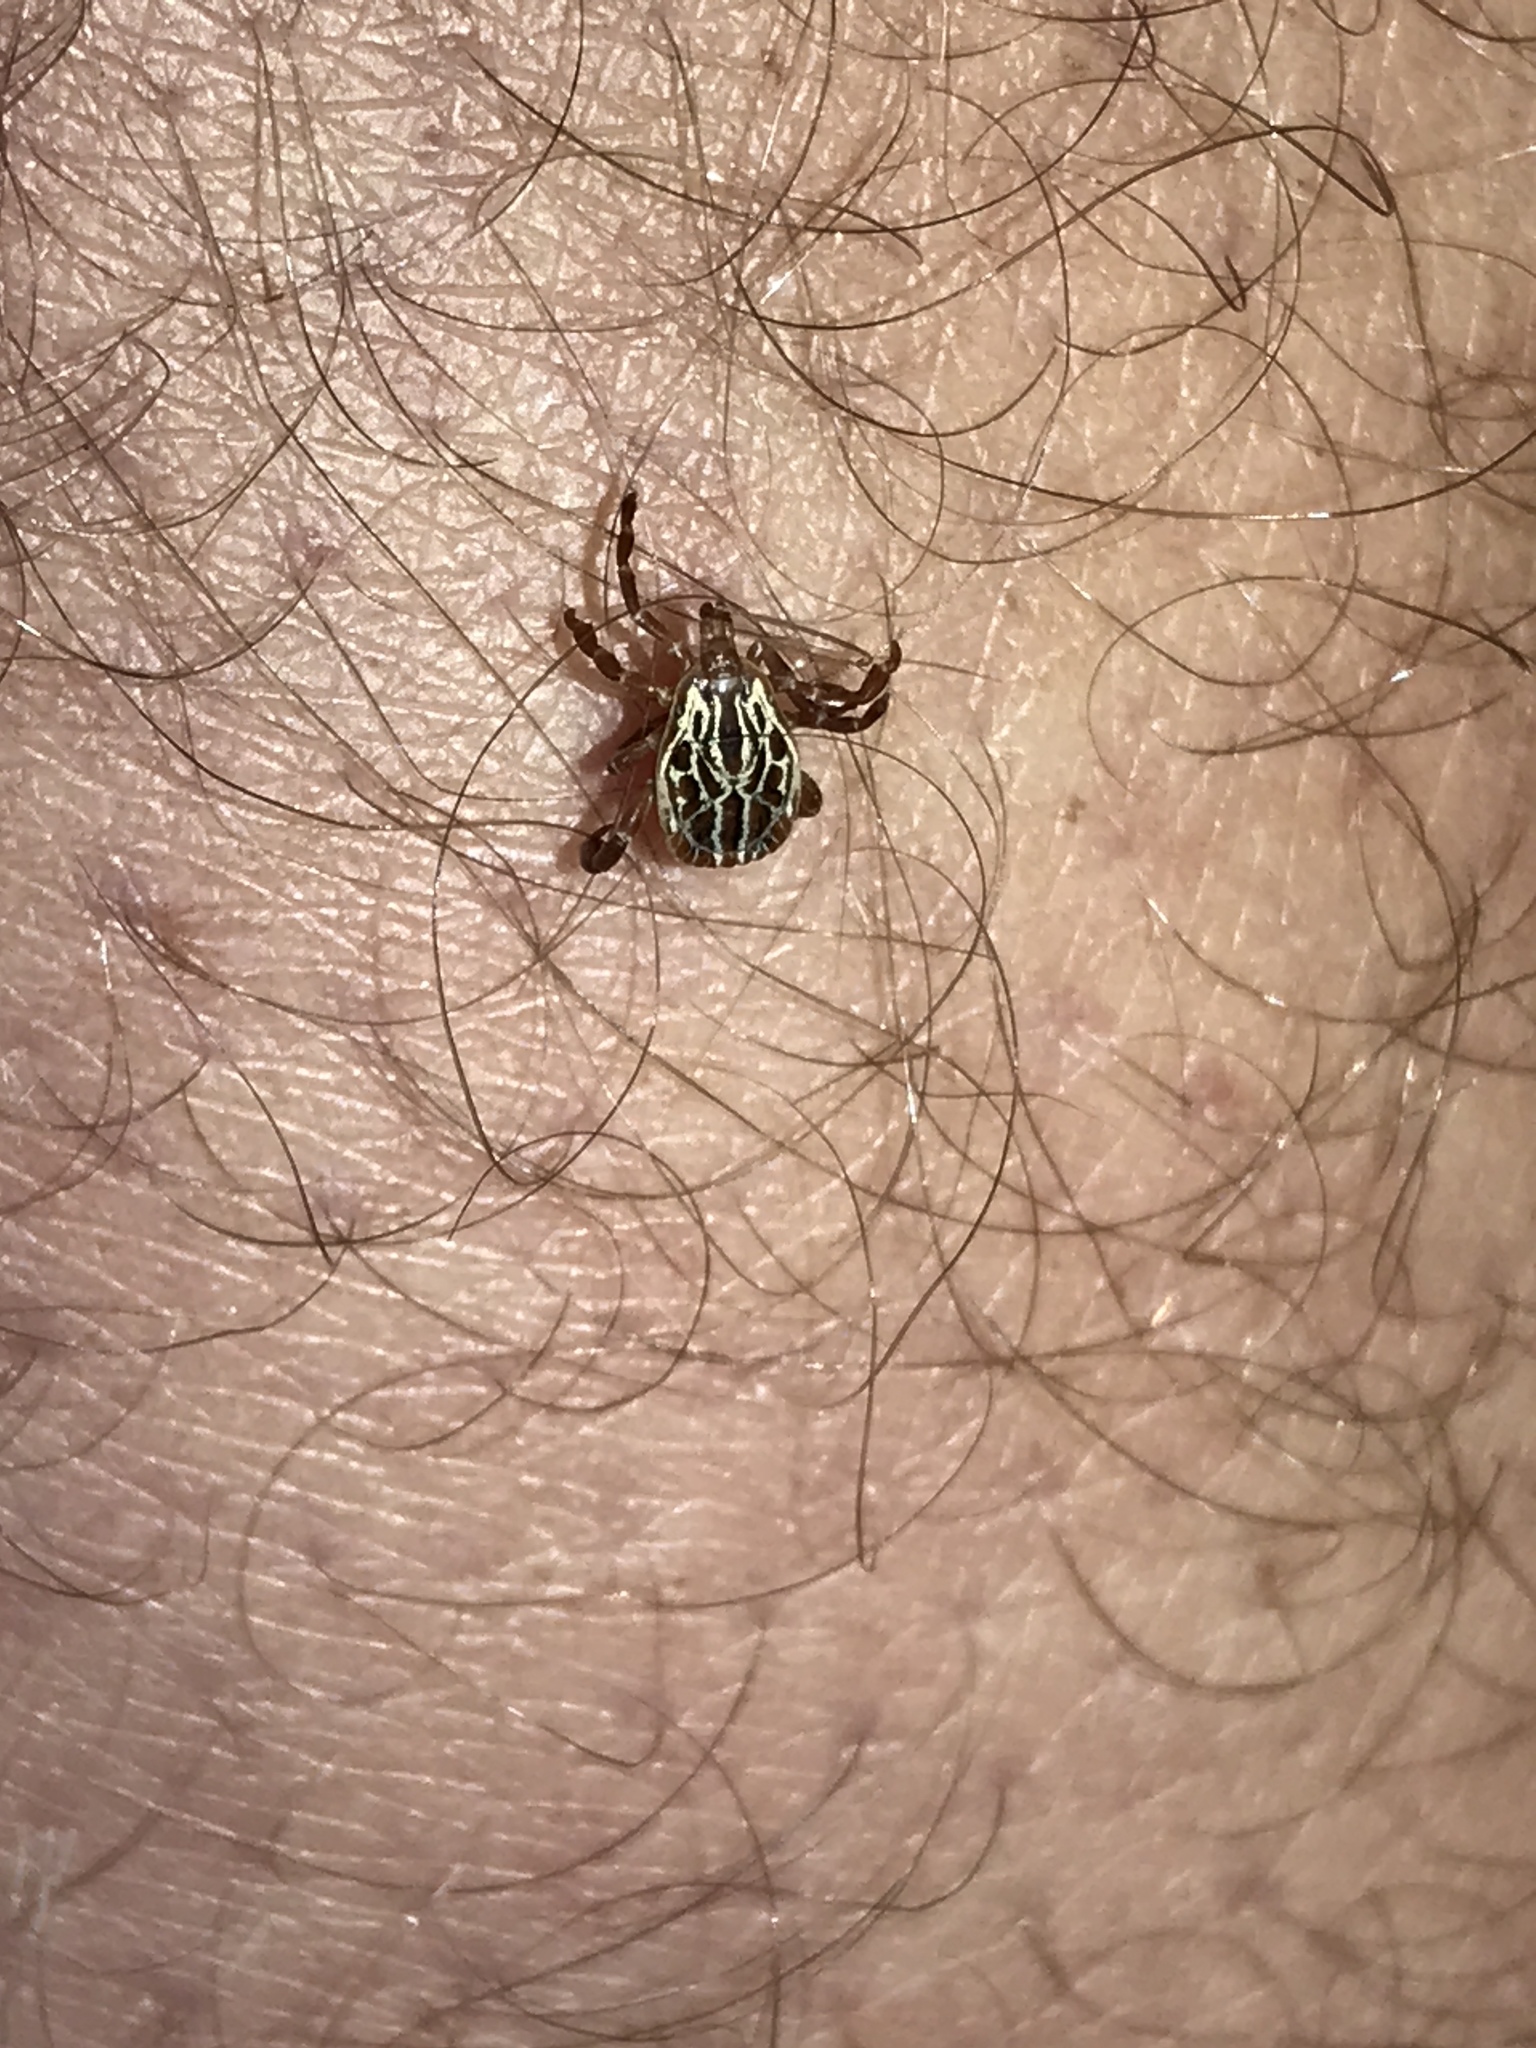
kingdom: Animalia
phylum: Arthropoda
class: Arachnida
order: Ixodida
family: Ixodidae
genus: Amblyomma
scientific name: Amblyomma maculatum
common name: Gulf coast tick
